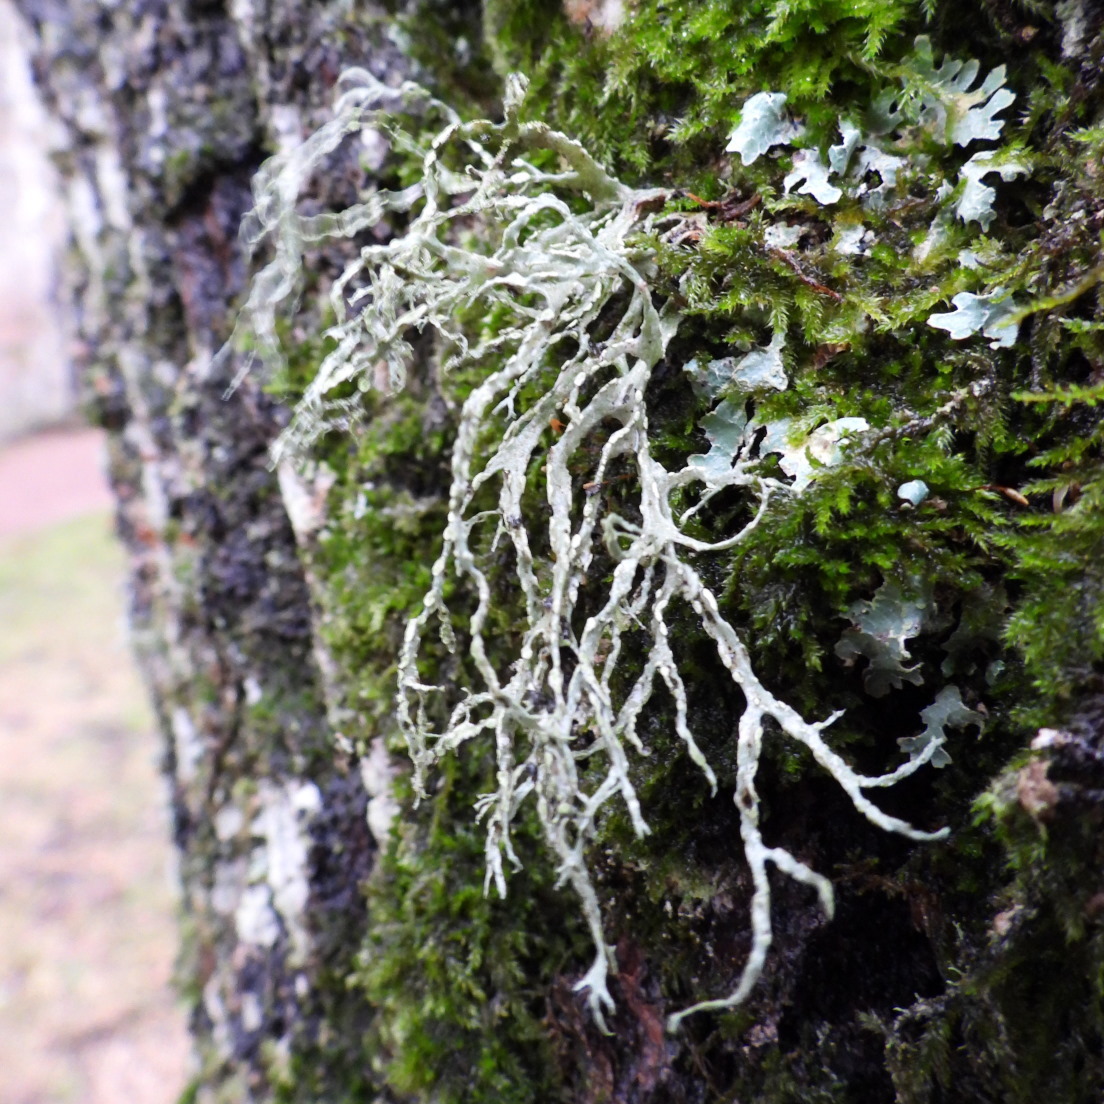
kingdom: Fungi
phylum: Ascomycota
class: Lecanoromycetes
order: Lecanorales
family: Ramalinaceae
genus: Ramalina
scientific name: Ramalina farinacea
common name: Farinose cartilage lichen
